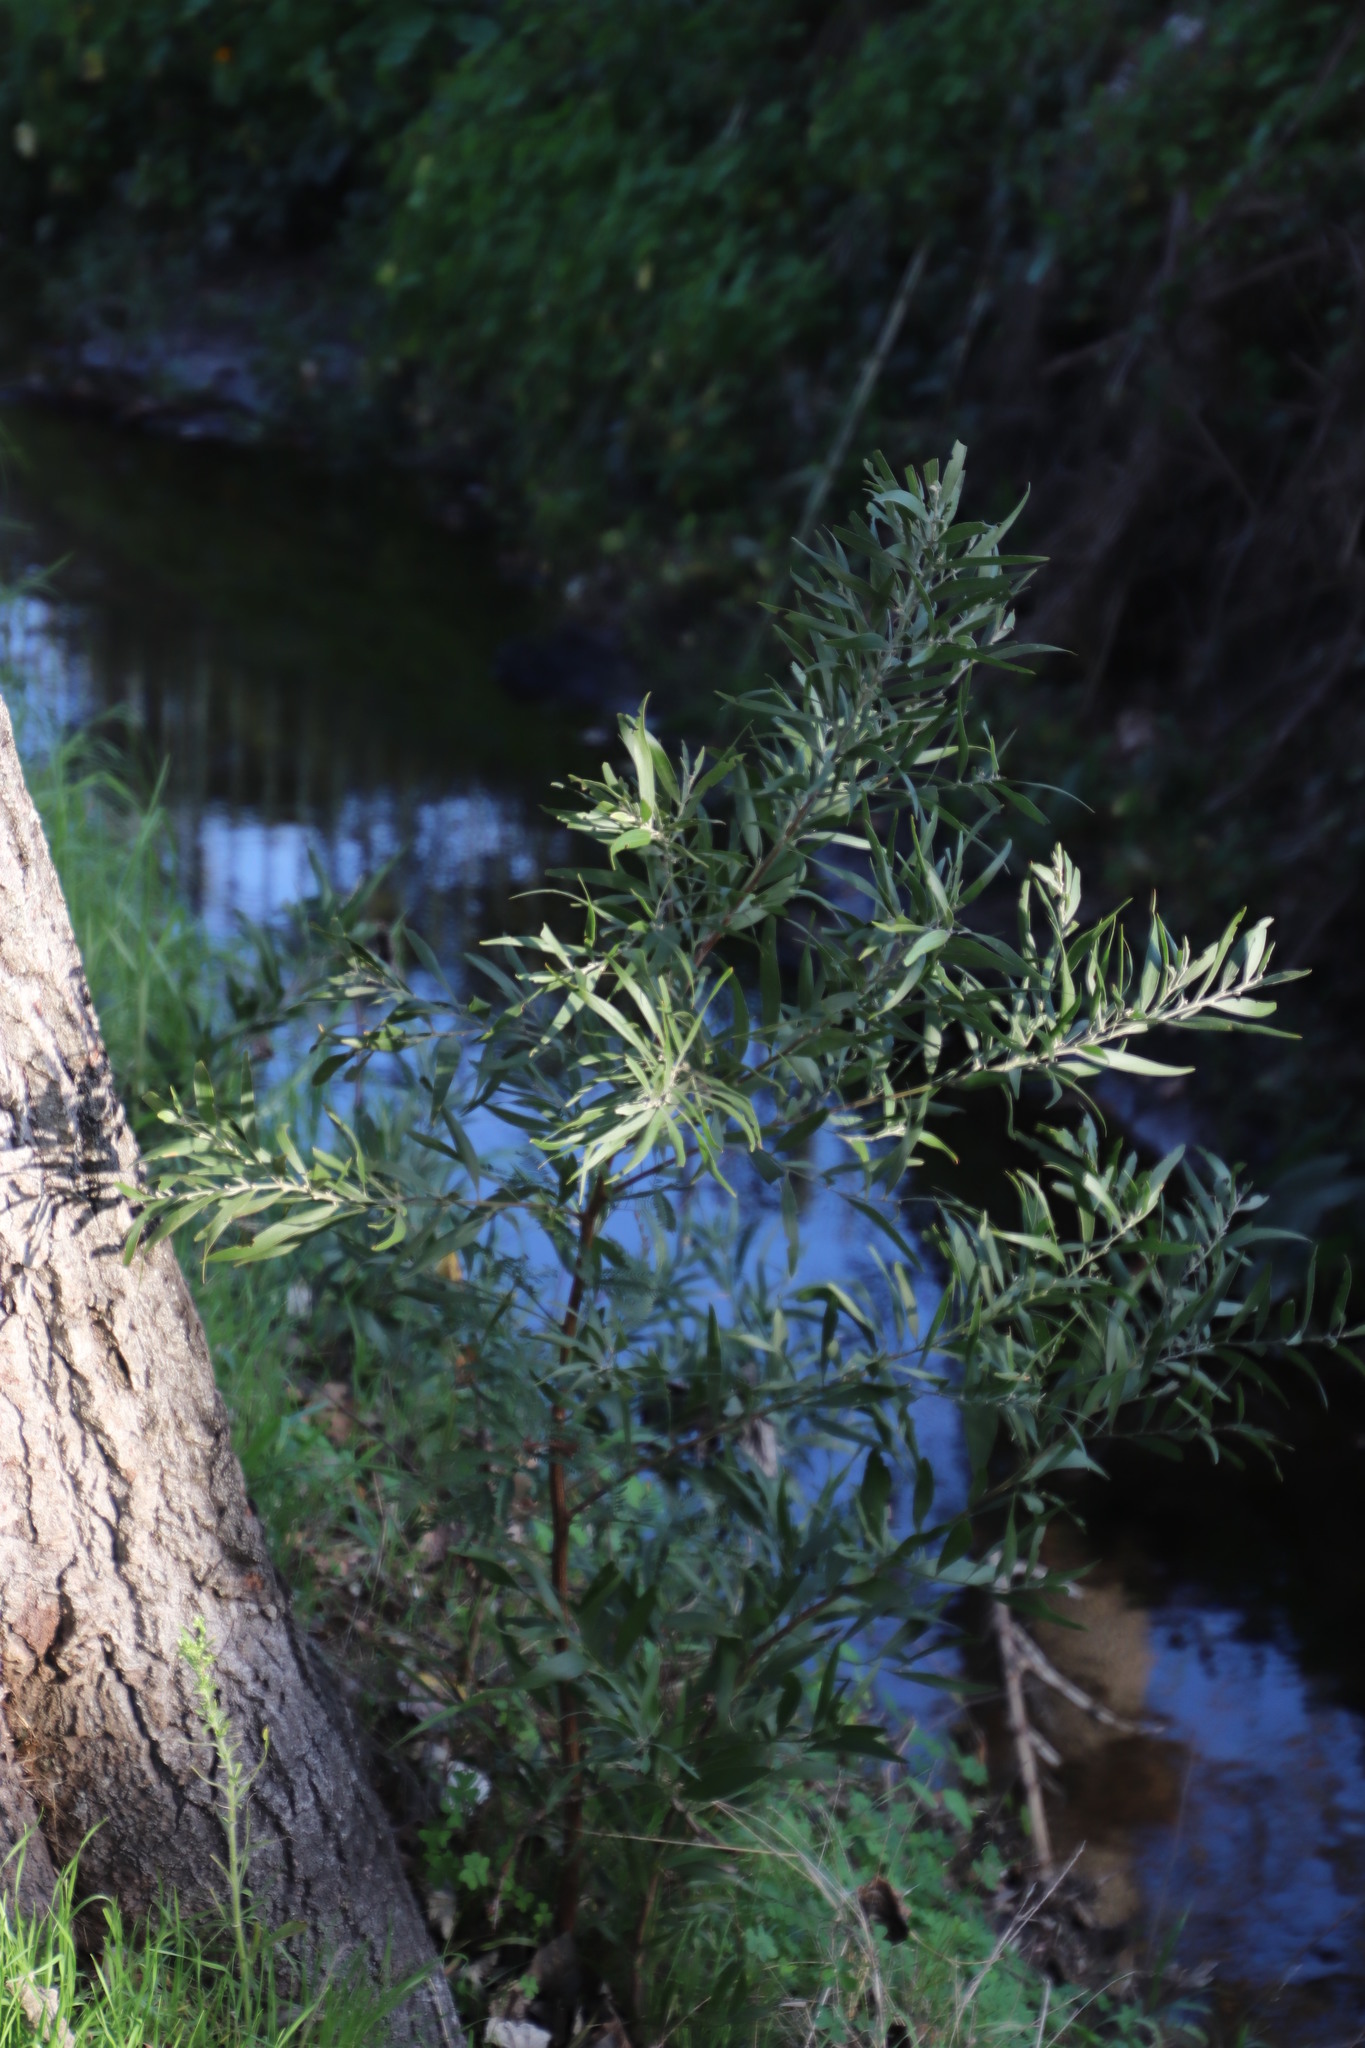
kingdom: Plantae
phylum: Tracheophyta
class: Magnoliopsida
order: Fabales
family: Fabaceae
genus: Acacia
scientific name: Acacia melanoxylon
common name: Blackwood
